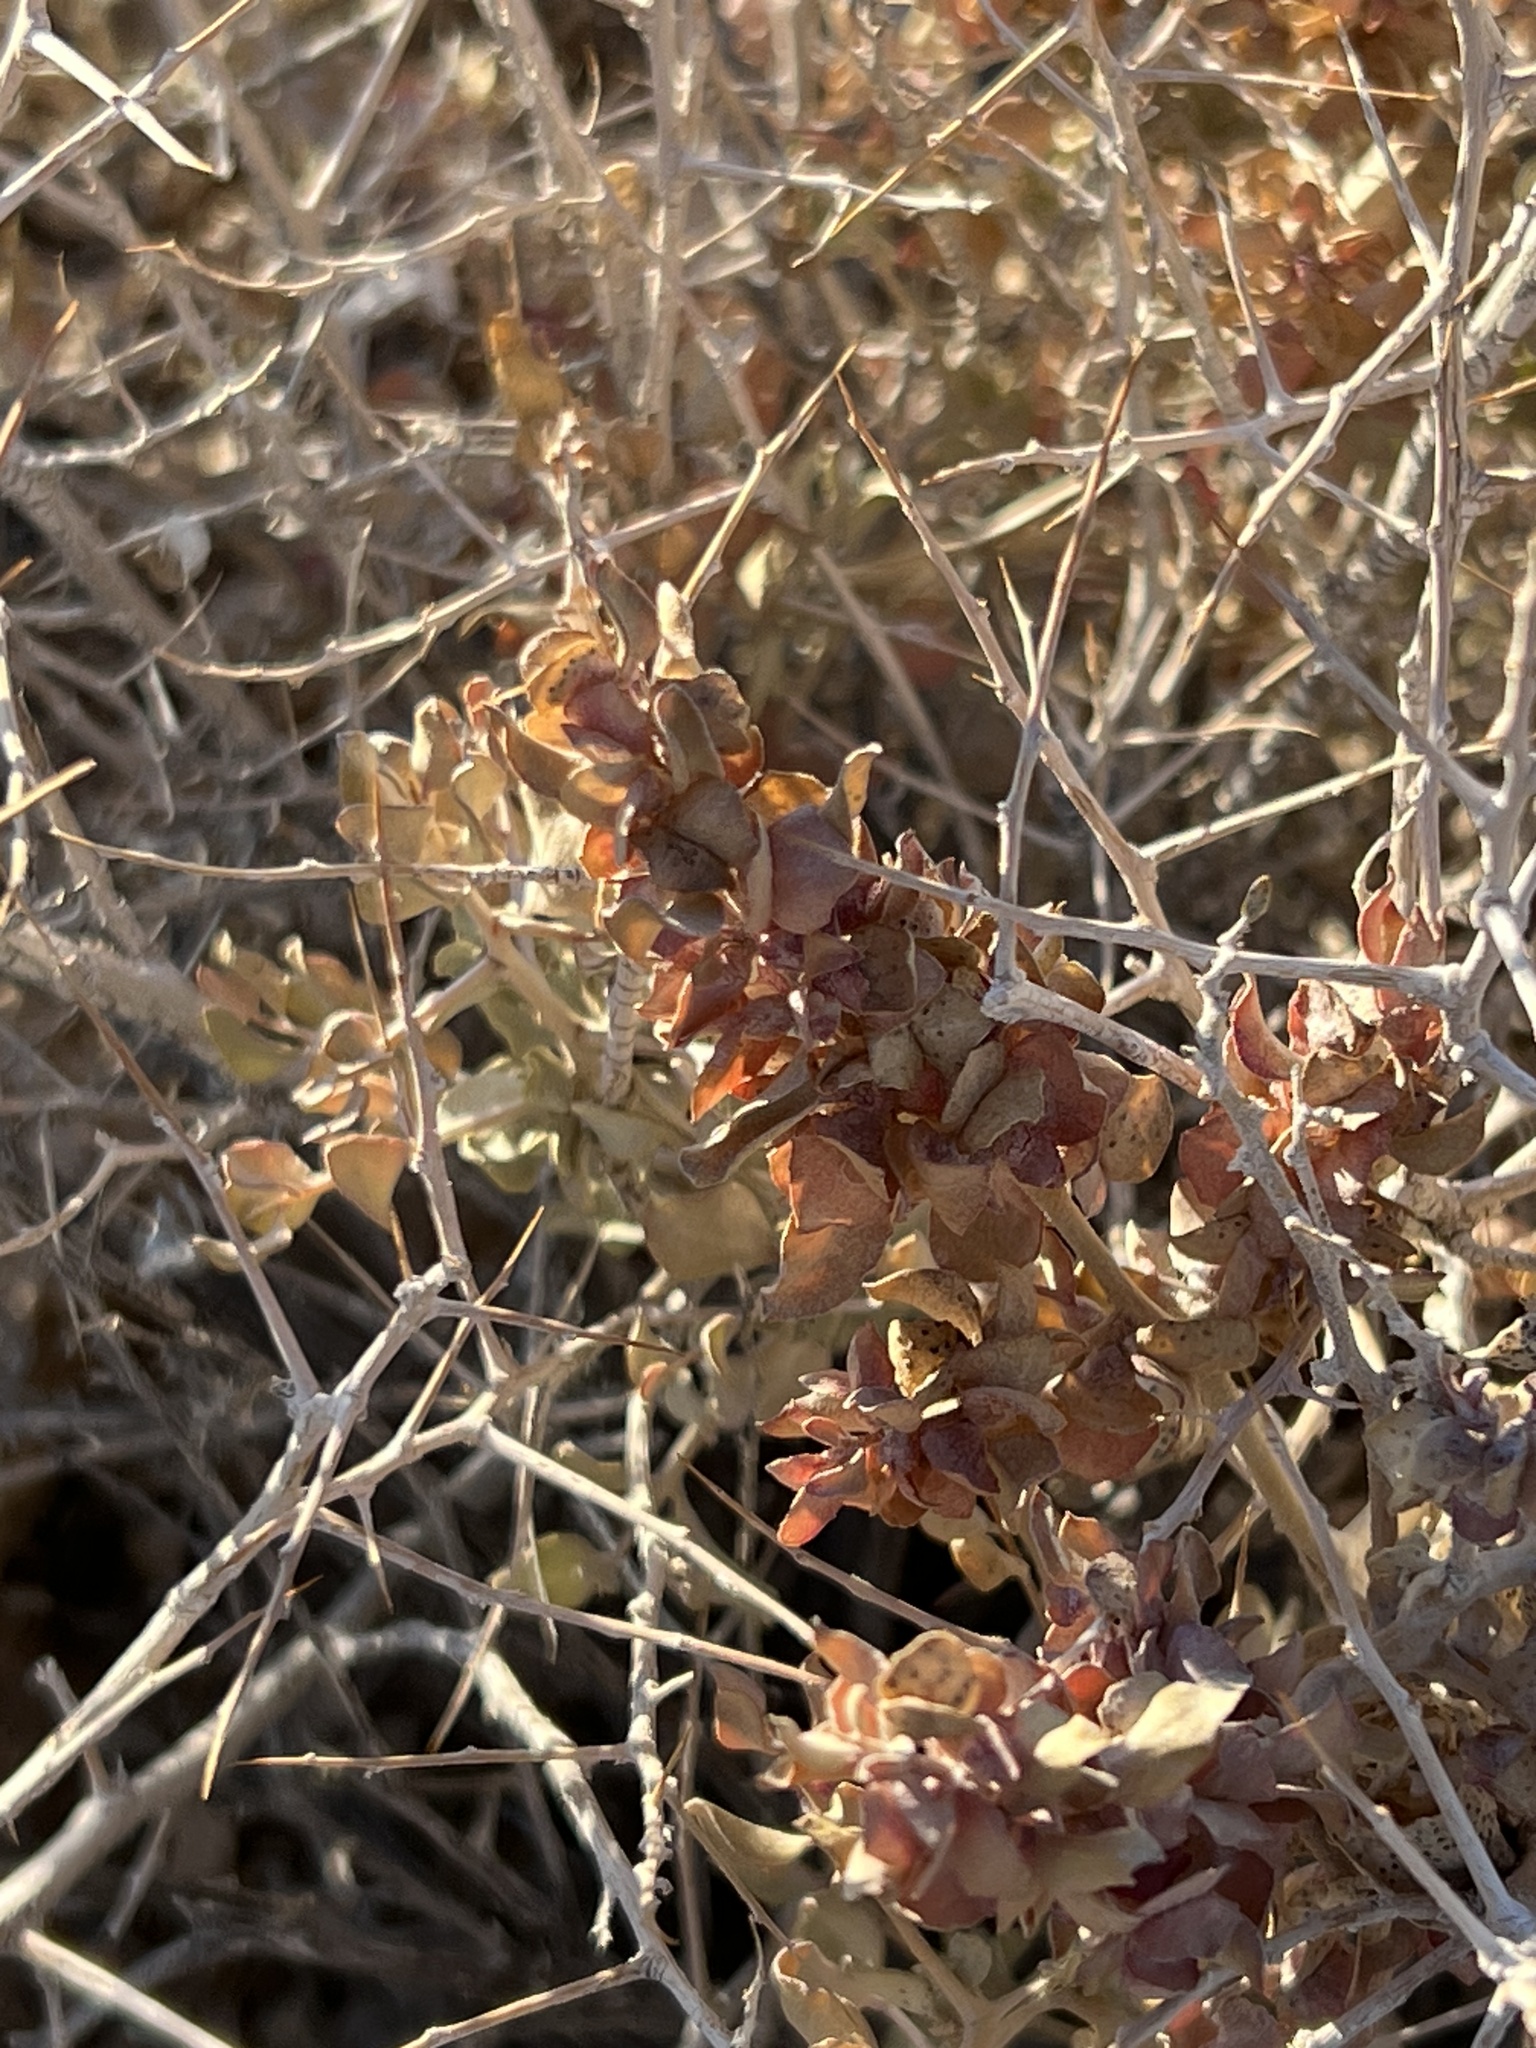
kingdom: Plantae
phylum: Tracheophyta
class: Magnoliopsida
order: Caryophyllales
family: Amaranthaceae
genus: Atriplex
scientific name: Atriplex confertifolia
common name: Shadscale
